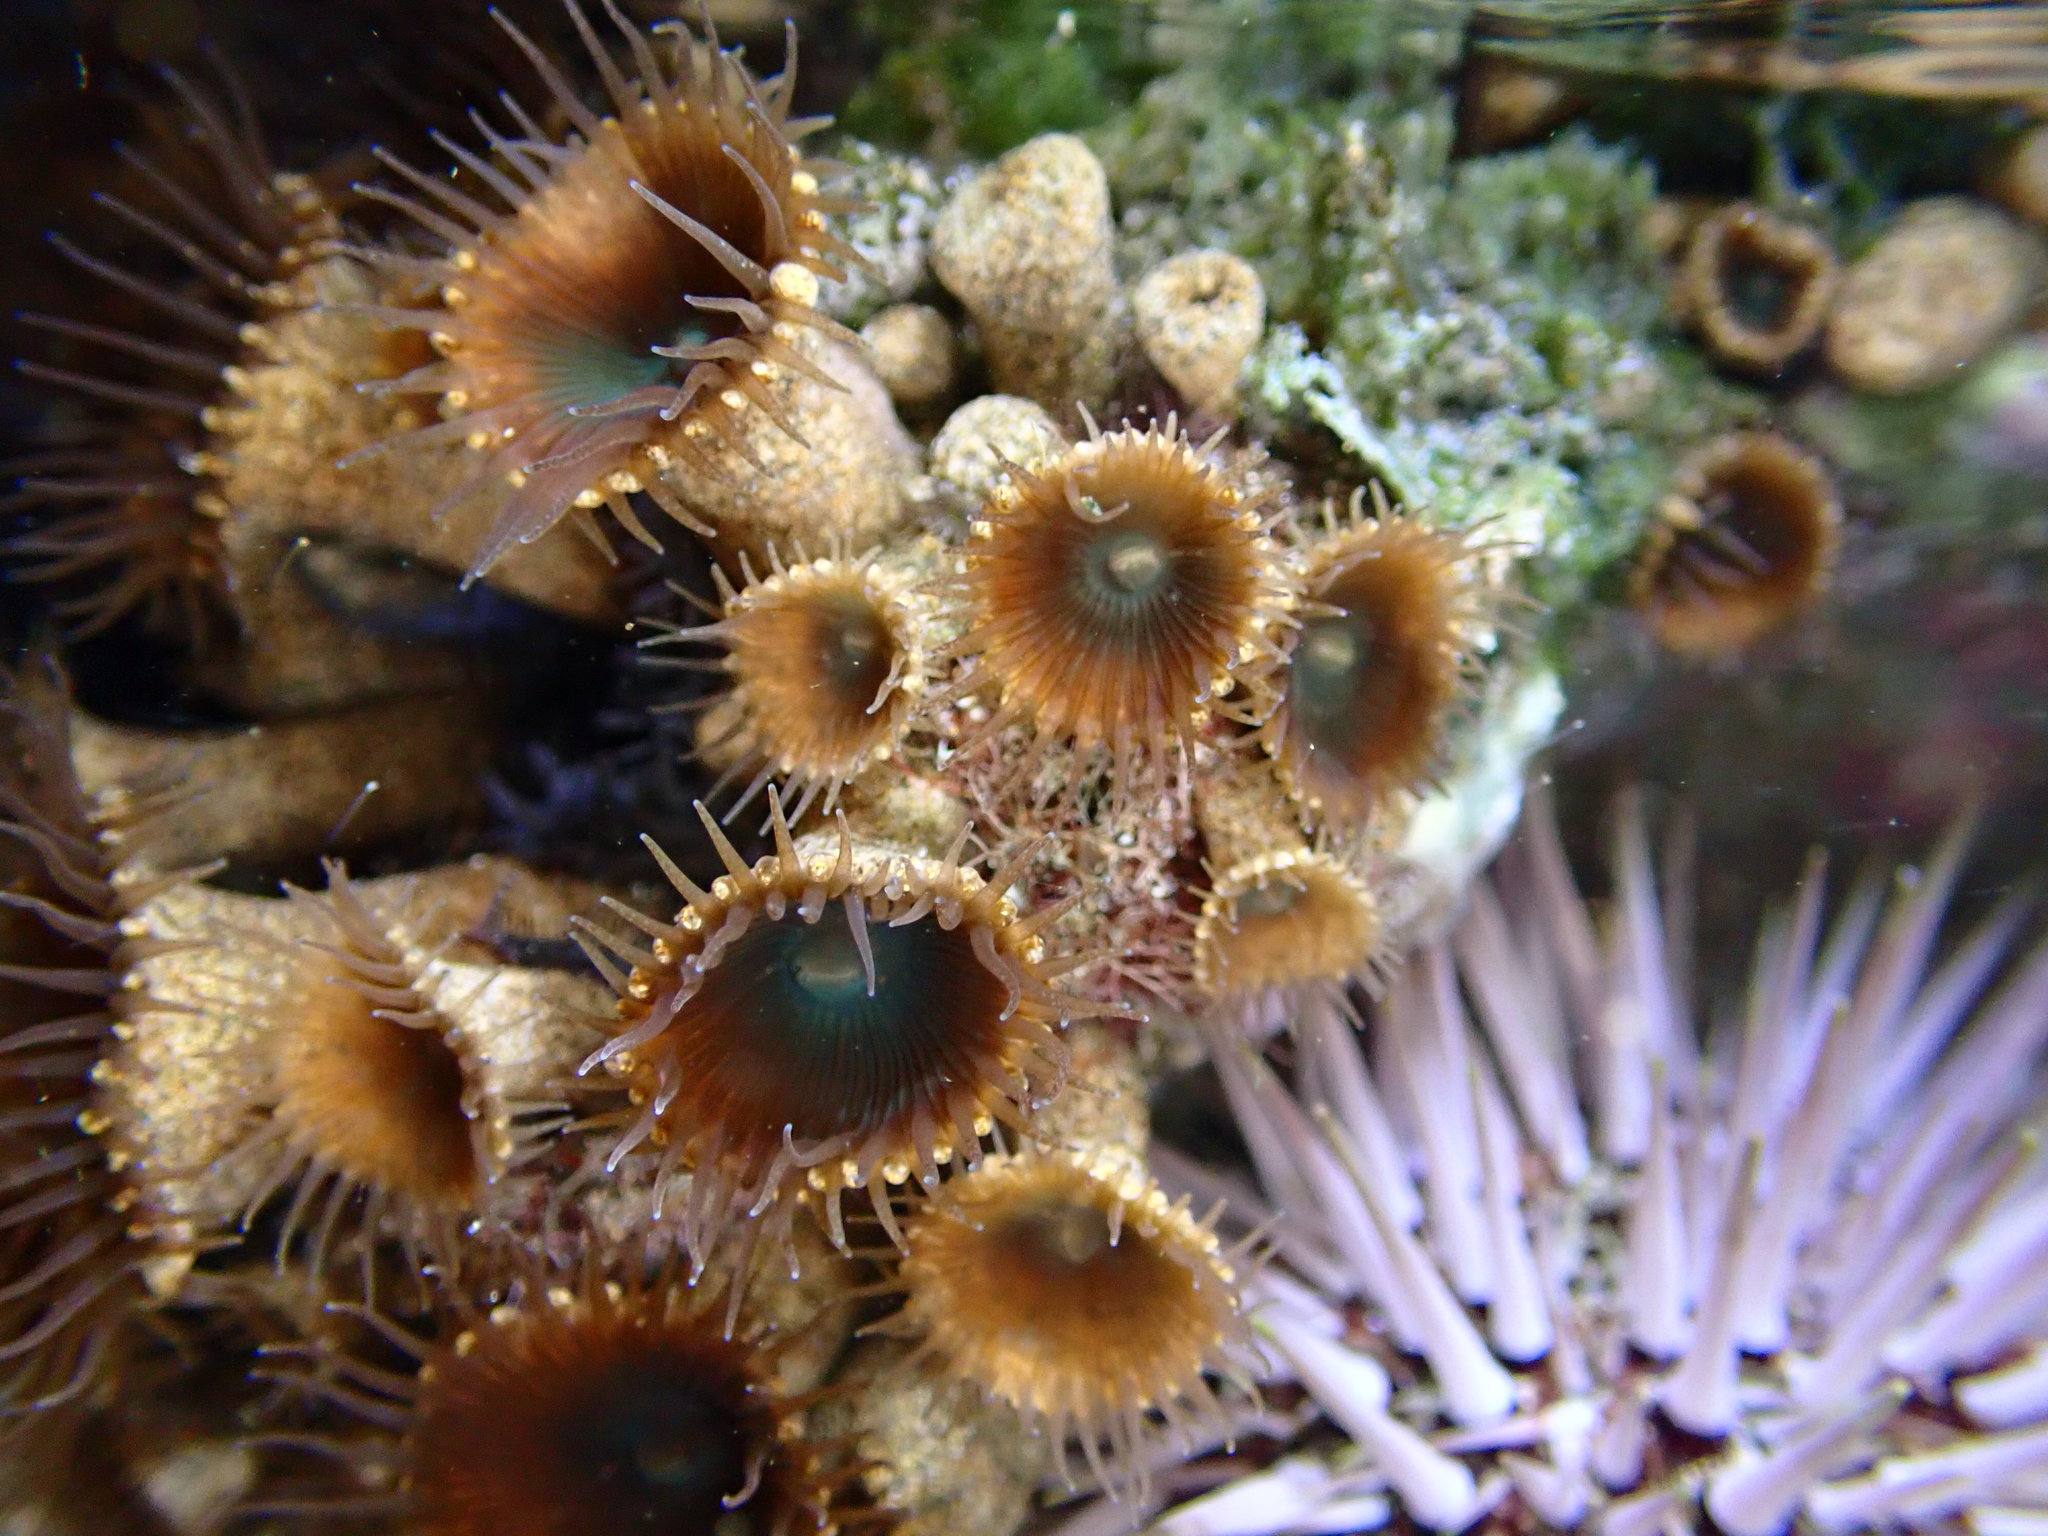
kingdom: Animalia
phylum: Cnidaria
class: Anthozoa
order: Zoantharia
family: Sphenopidae
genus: Palythoa
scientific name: Palythoa mutuki
